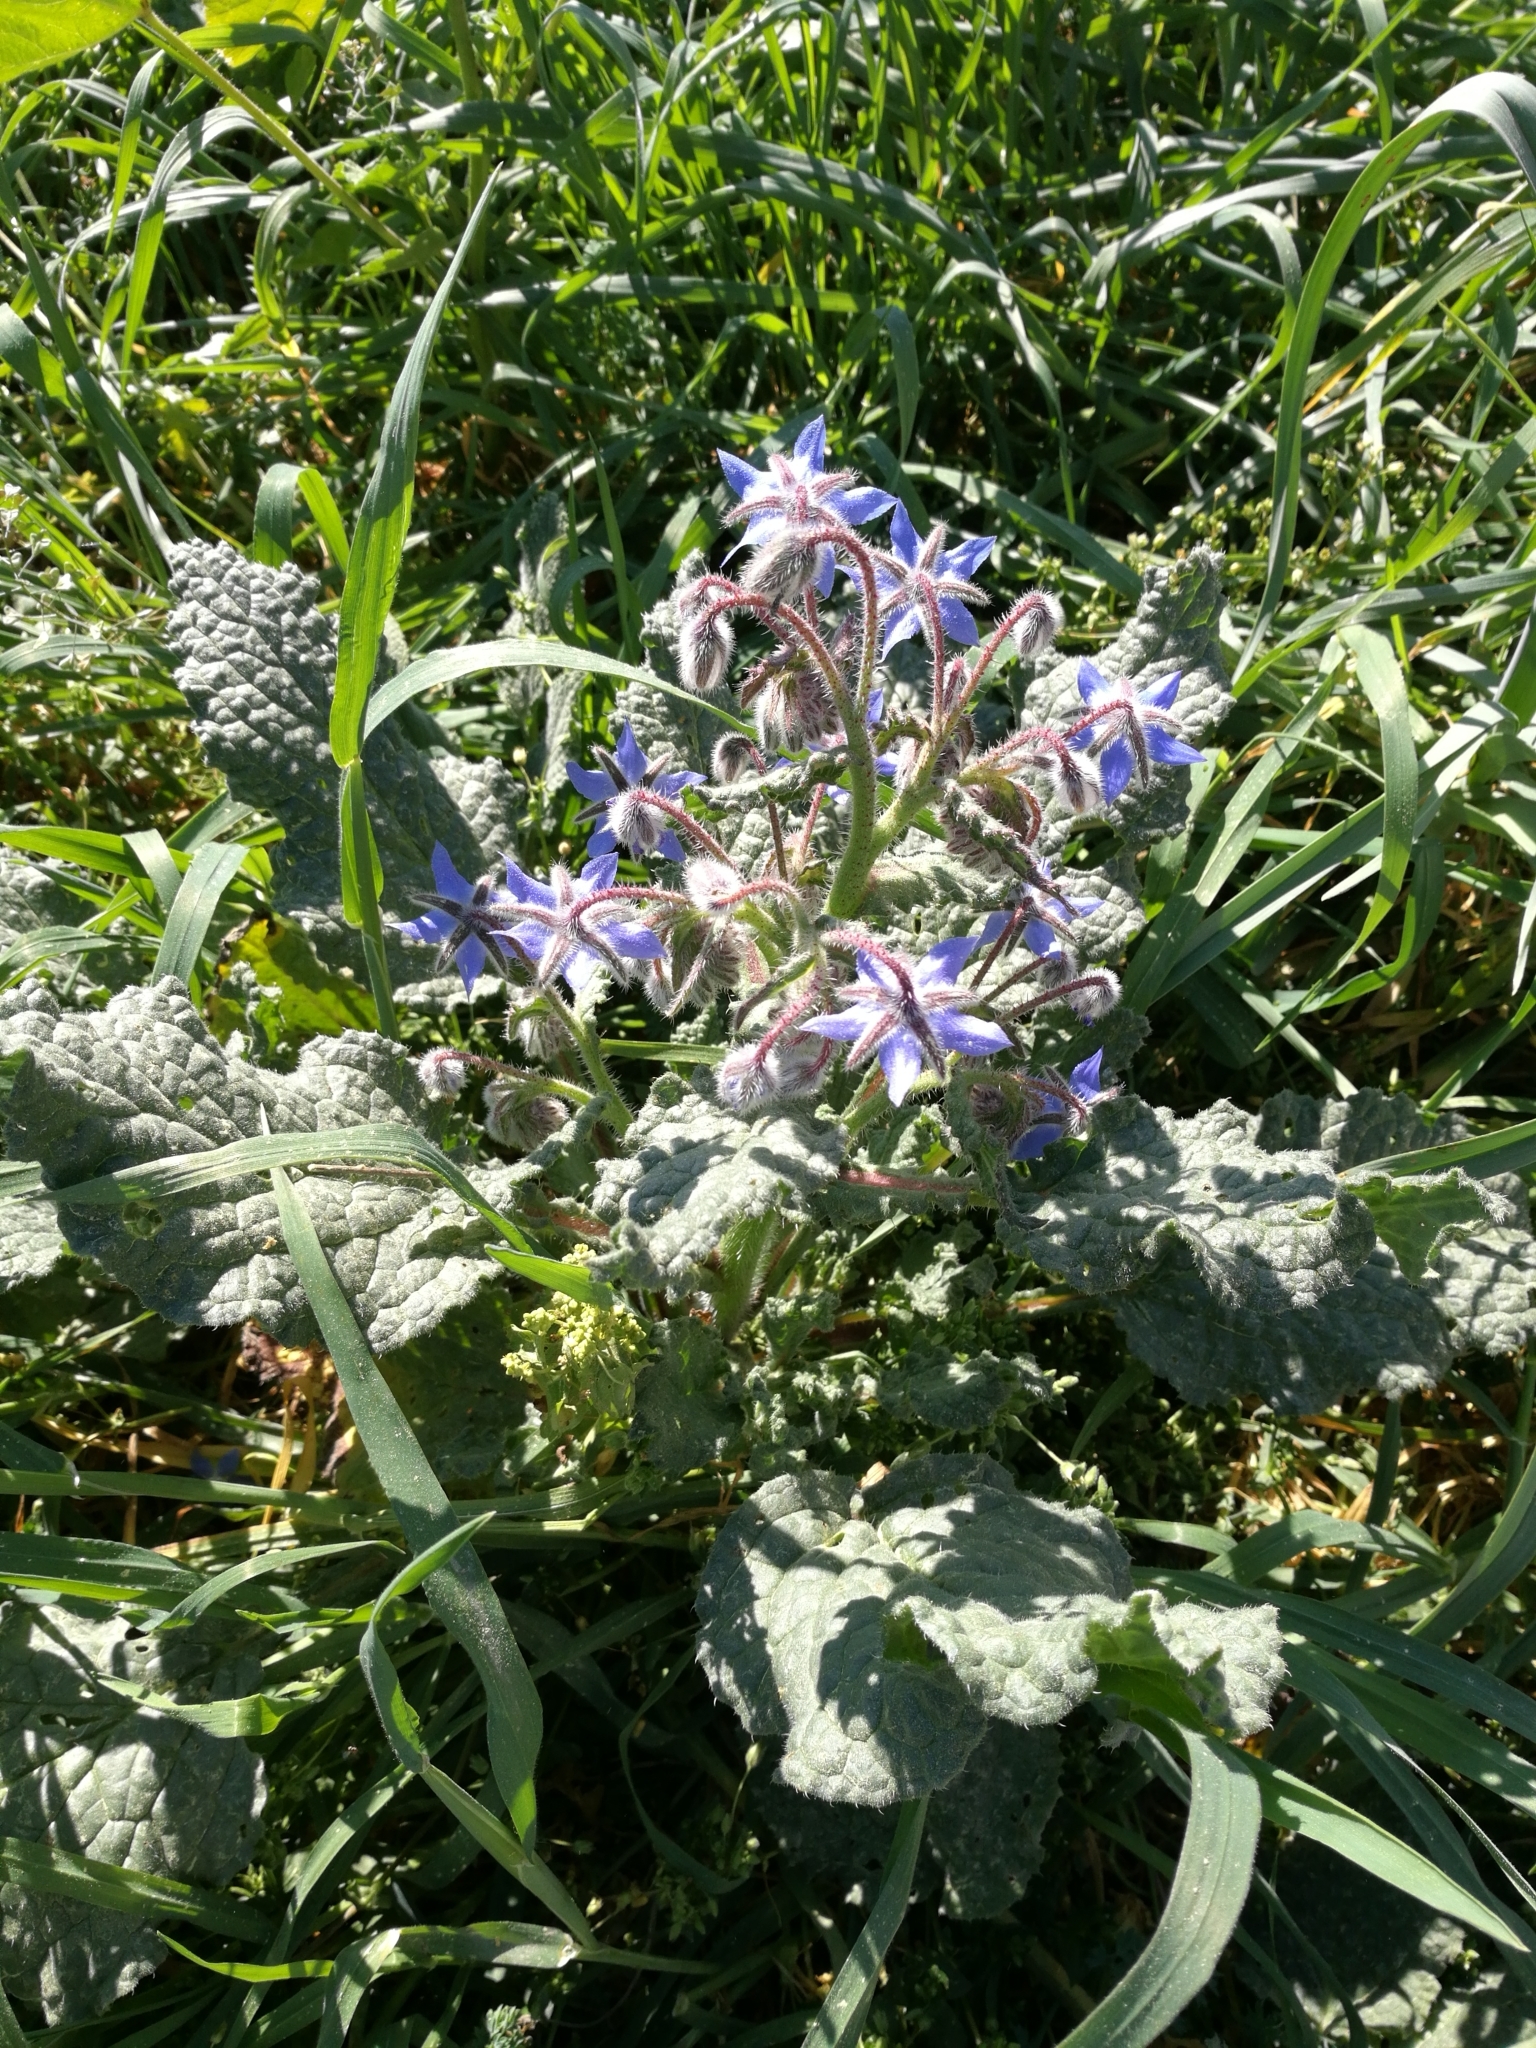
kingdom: Plantae
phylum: Tracheophyta
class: Magnoliopsida
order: Boraginales
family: Boraginaceae
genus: Borago
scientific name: Borago officinalis
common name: Borage
